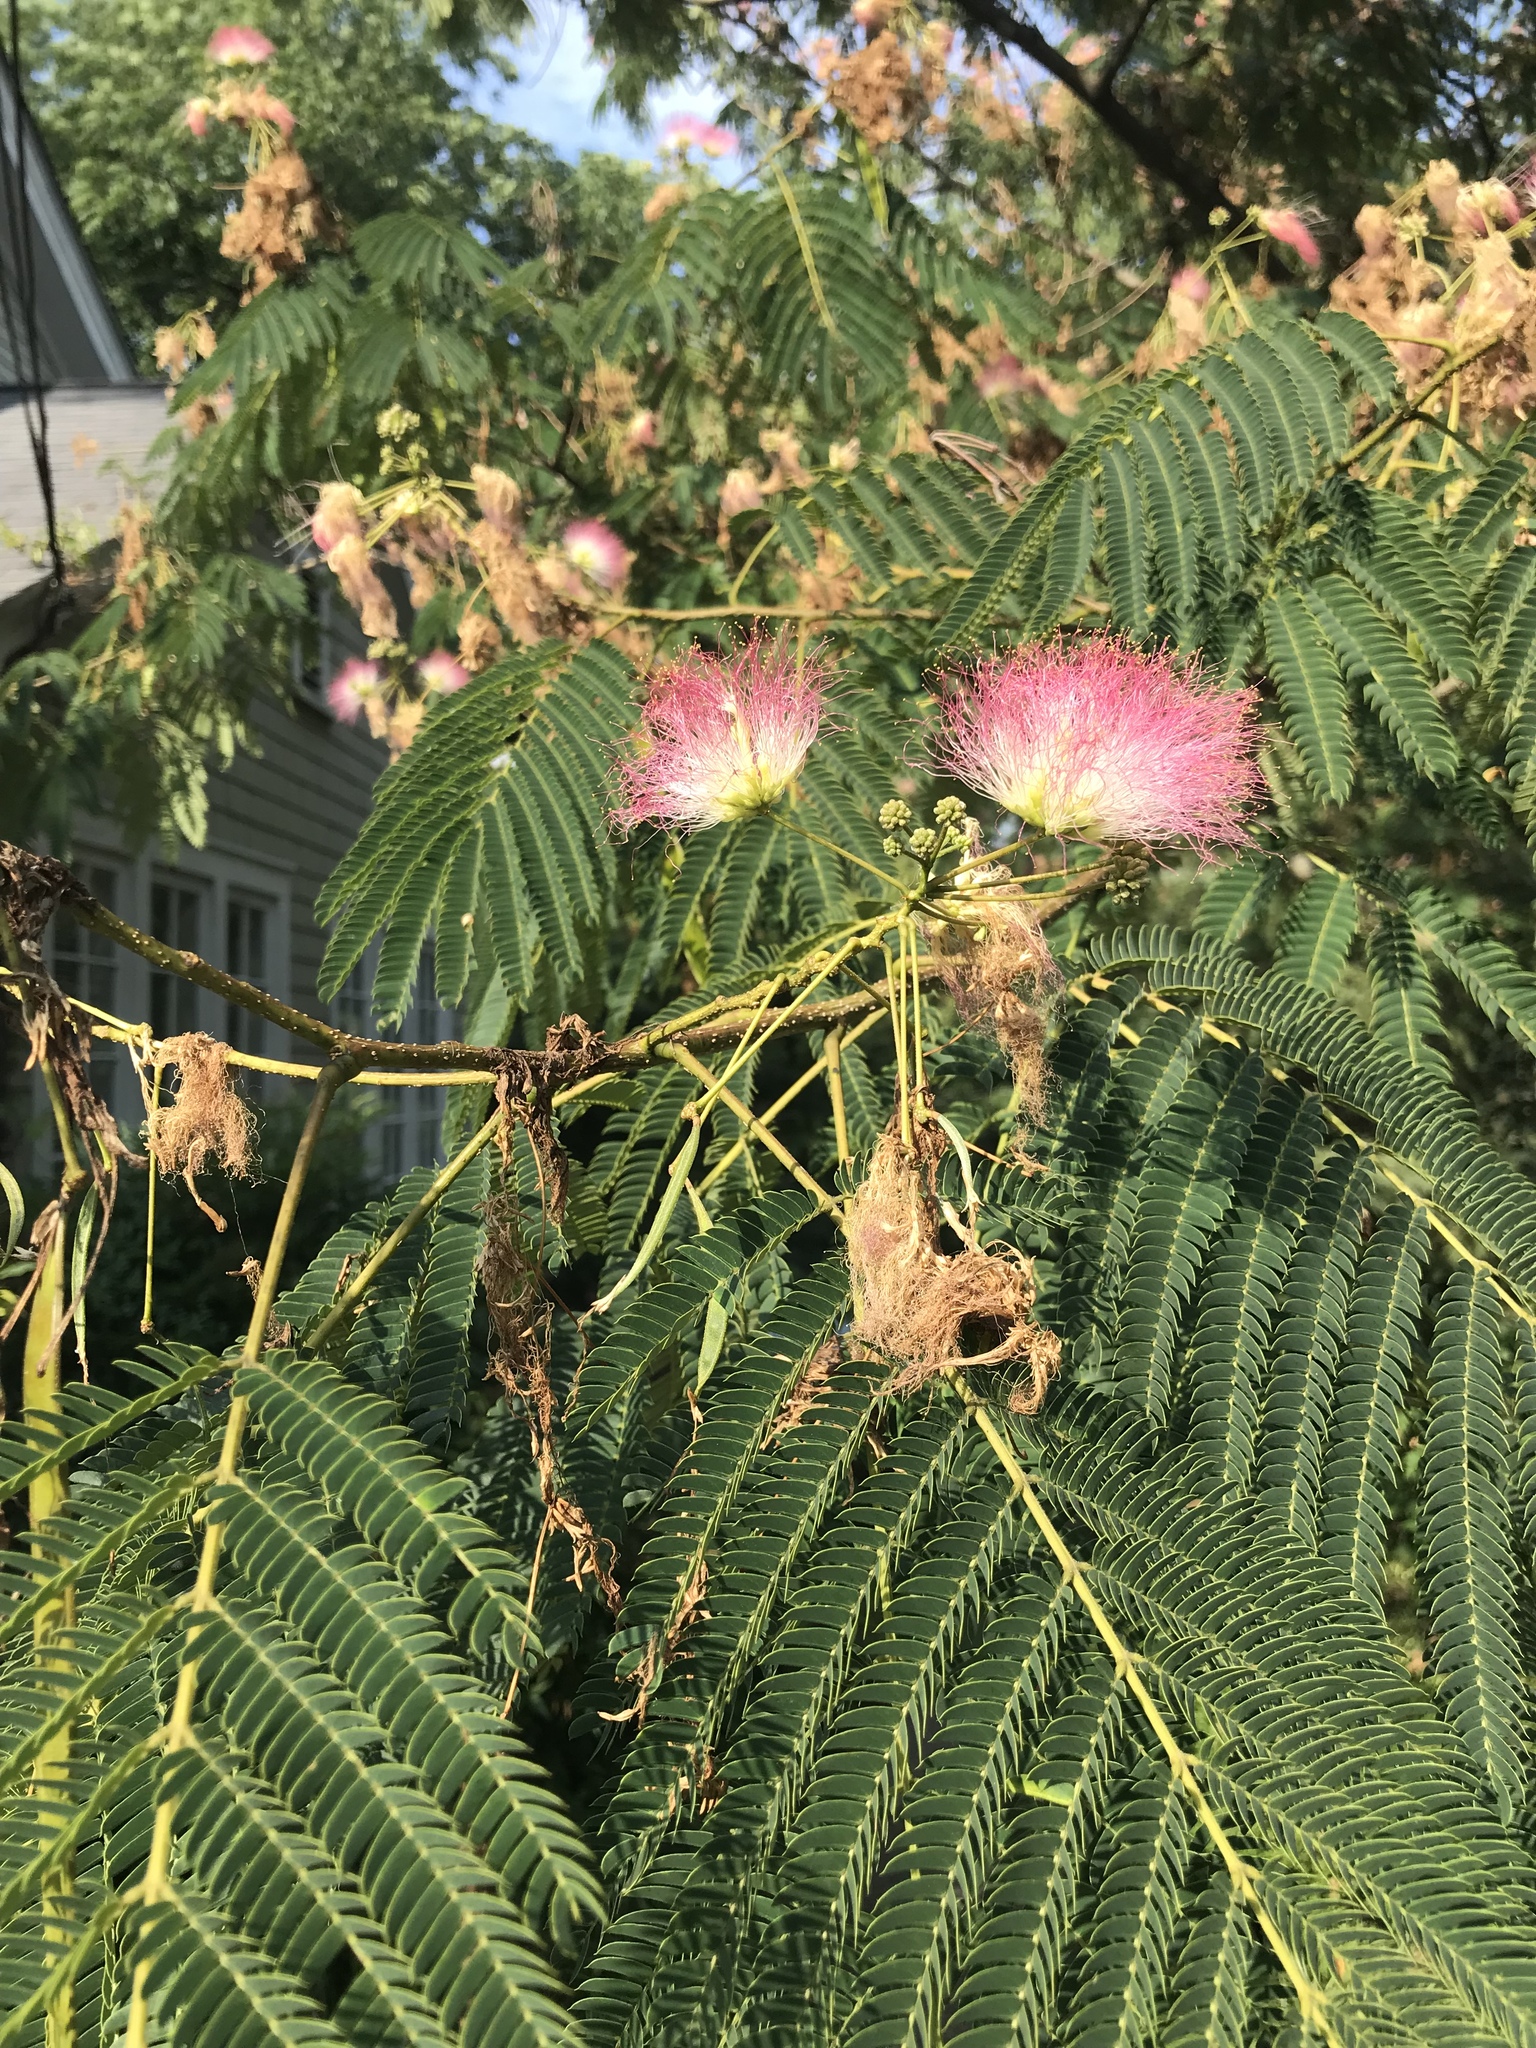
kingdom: Plantae
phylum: Tracheophyta
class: Magnoliopsida
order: Fabales
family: Fabaceae
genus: Albizia
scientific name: Albizia julibrissin
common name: Silktree
